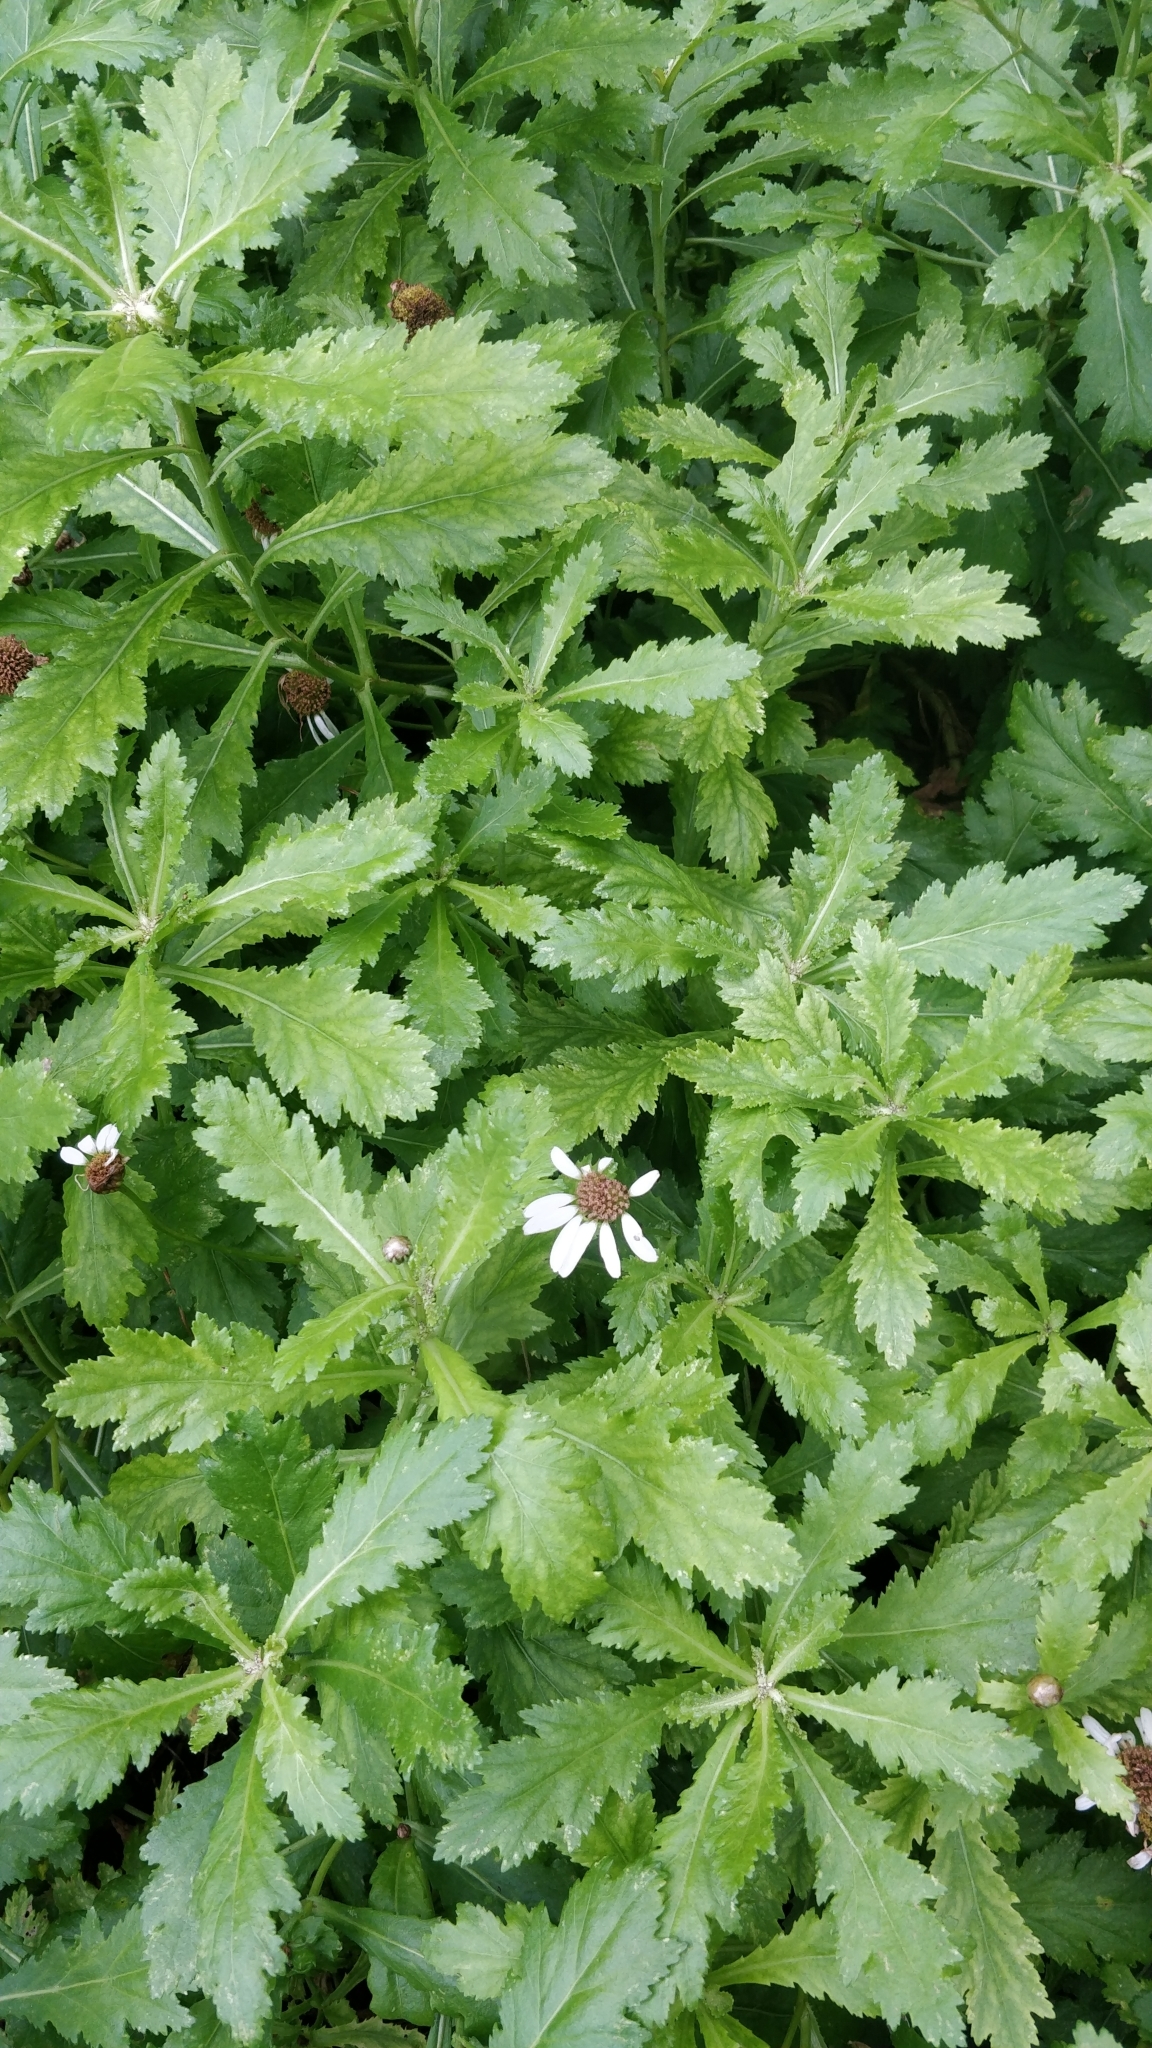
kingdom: Plantae
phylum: Tracheophyta
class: Magnoliopsida
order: Asterales
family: Asteraceae
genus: Argyranthemum
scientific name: Argyranthemum pinnatifidum
